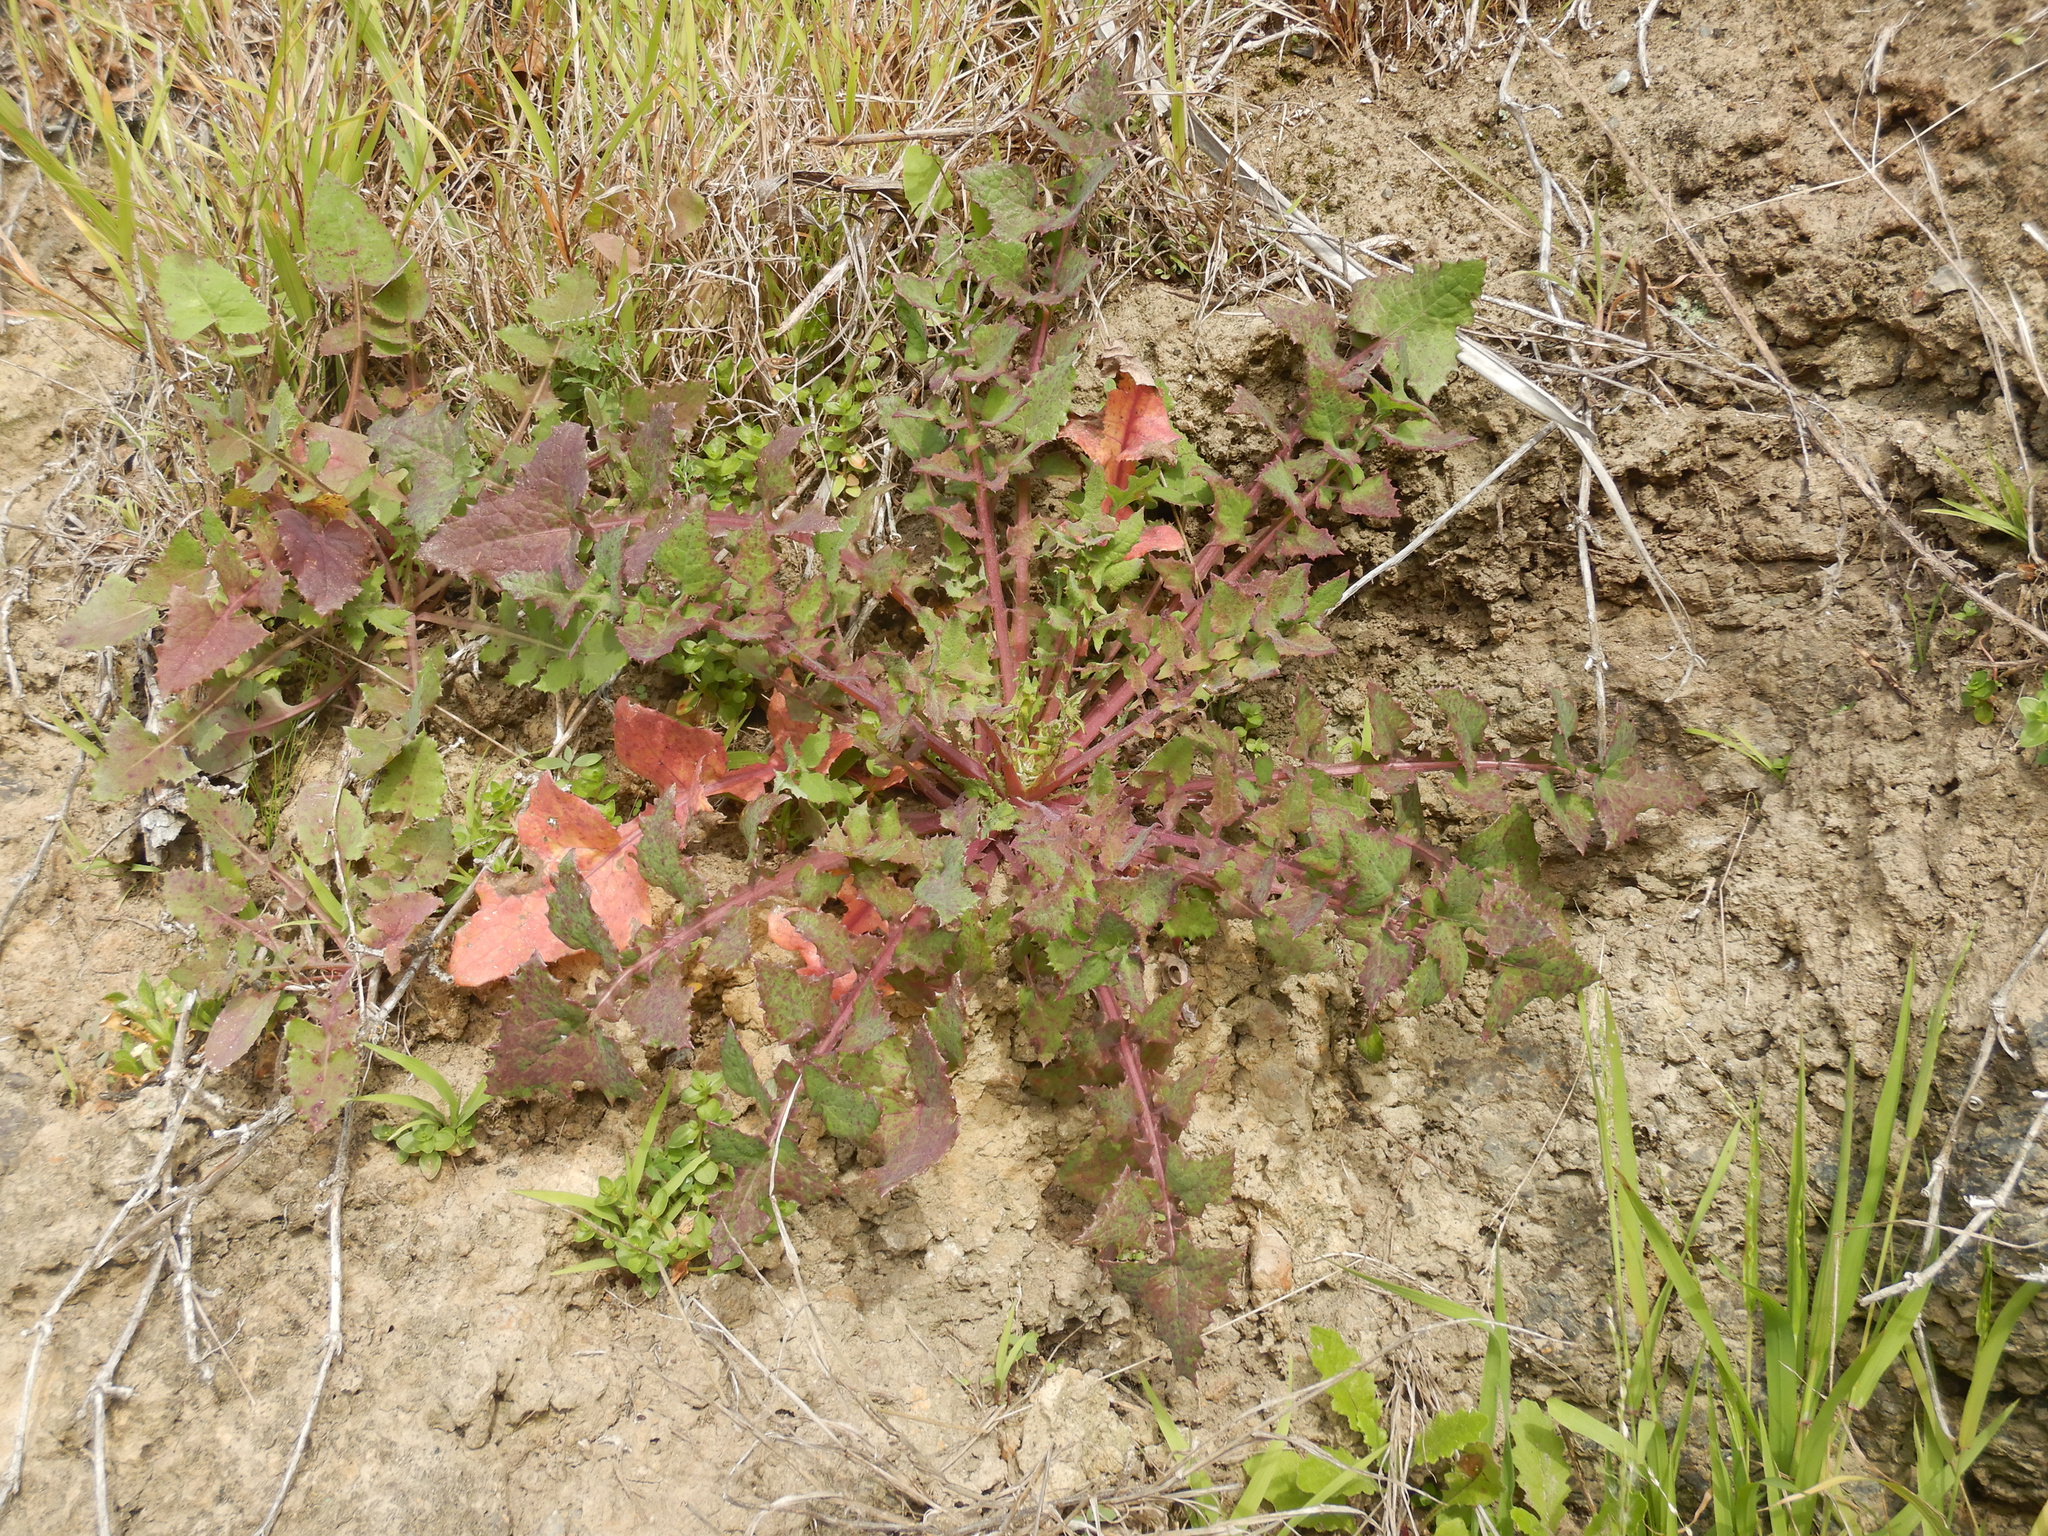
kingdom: Plantae
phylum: Tracheophyta
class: Magnoliopsida
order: Asterales
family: Asteraceae
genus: Sonchus
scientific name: Sonchus oleraceus
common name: Common sowthistle
